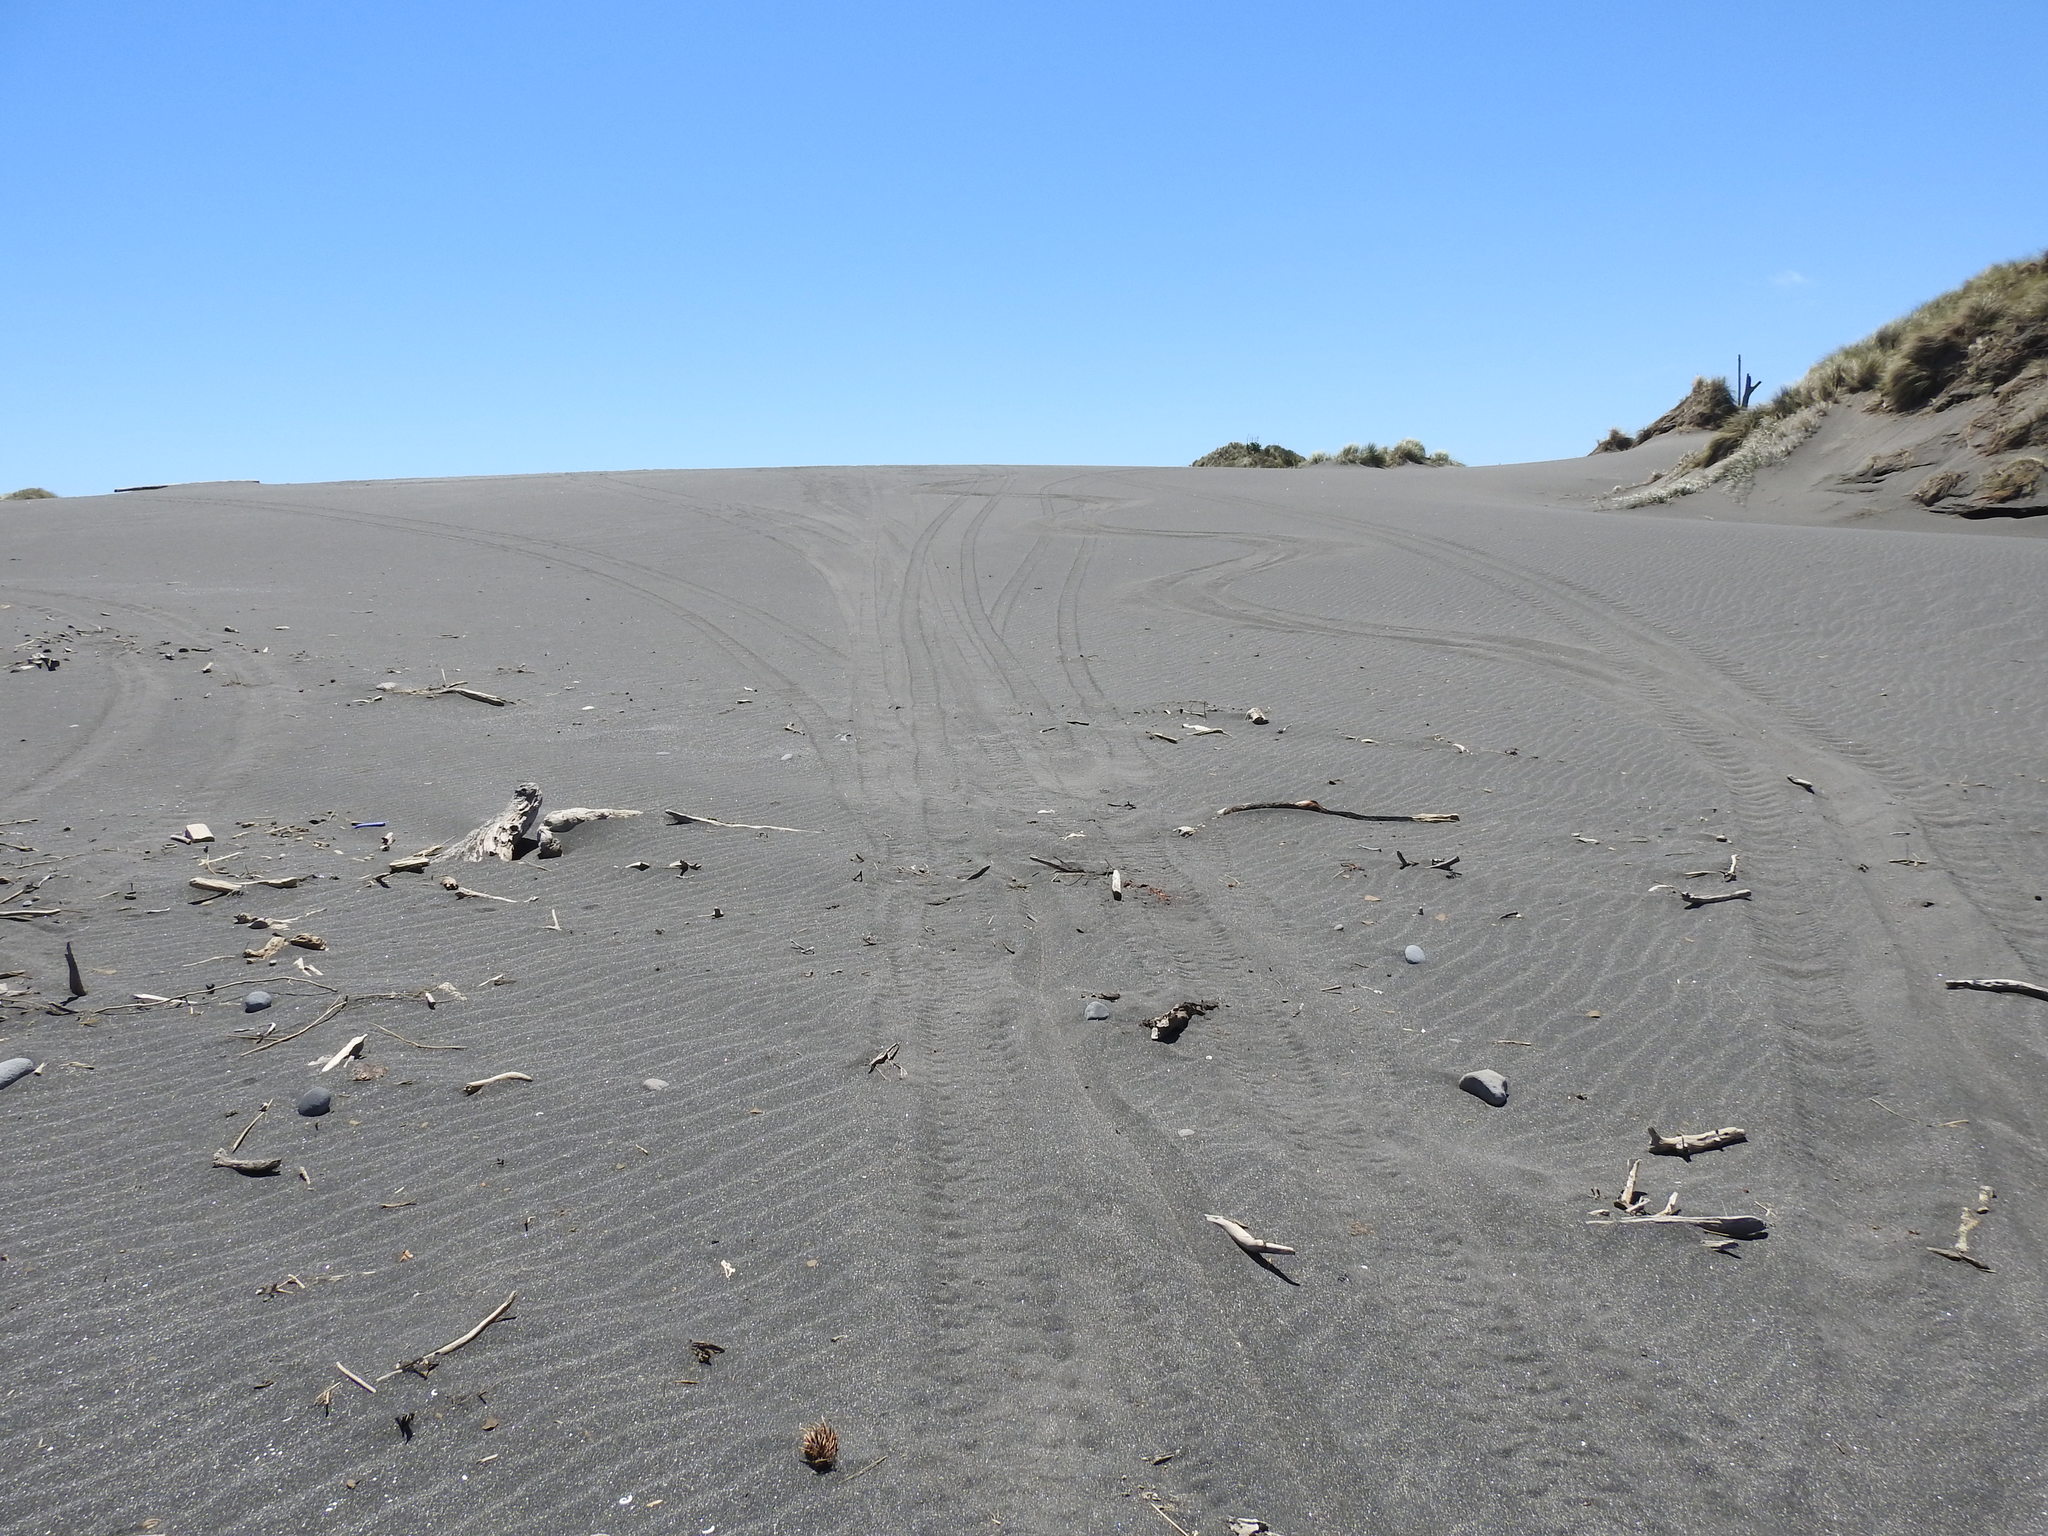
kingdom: Animalia
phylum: Chordata
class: Aves
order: Charadriiformes
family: Charadriidae
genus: Anarhynchus
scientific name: Anarhynchus
